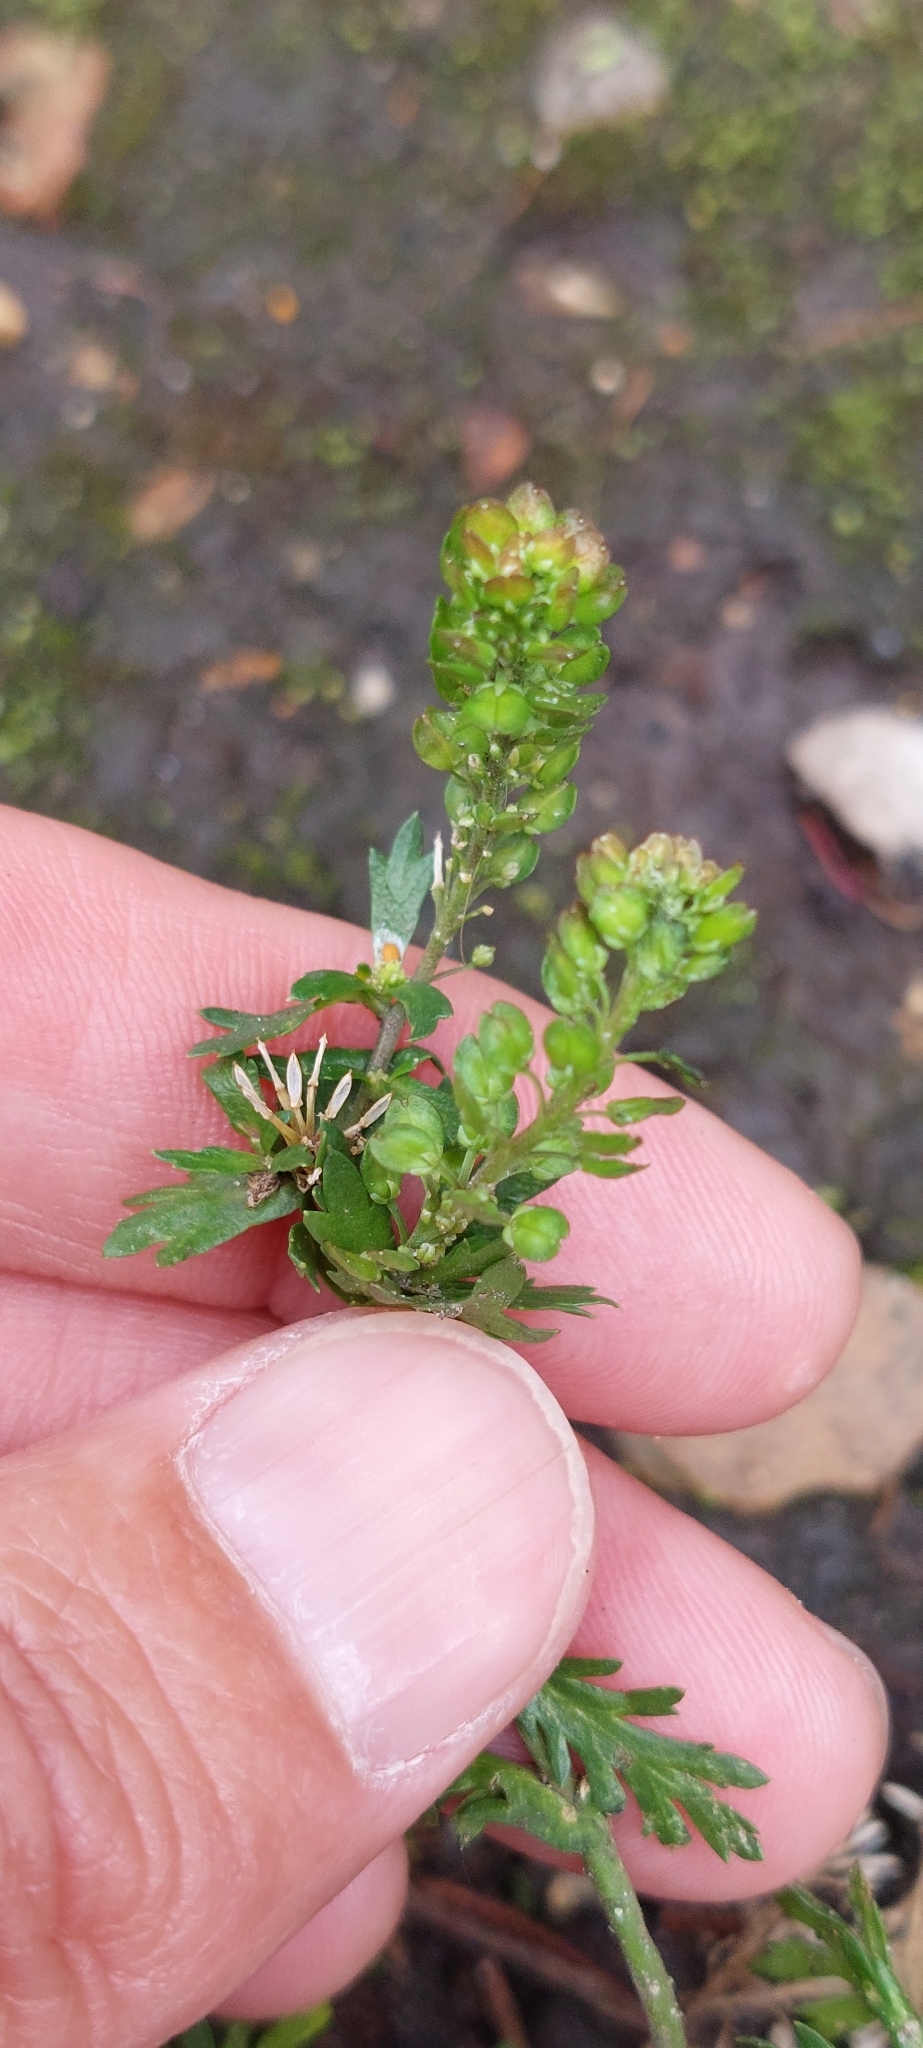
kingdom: Plantae
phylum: Tracheophyta
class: Magnoliopsida
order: Brassicales
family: Brassicaceae
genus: Lepidium
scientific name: Lepidium bipinnatifidum
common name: Wayside pepperwort
